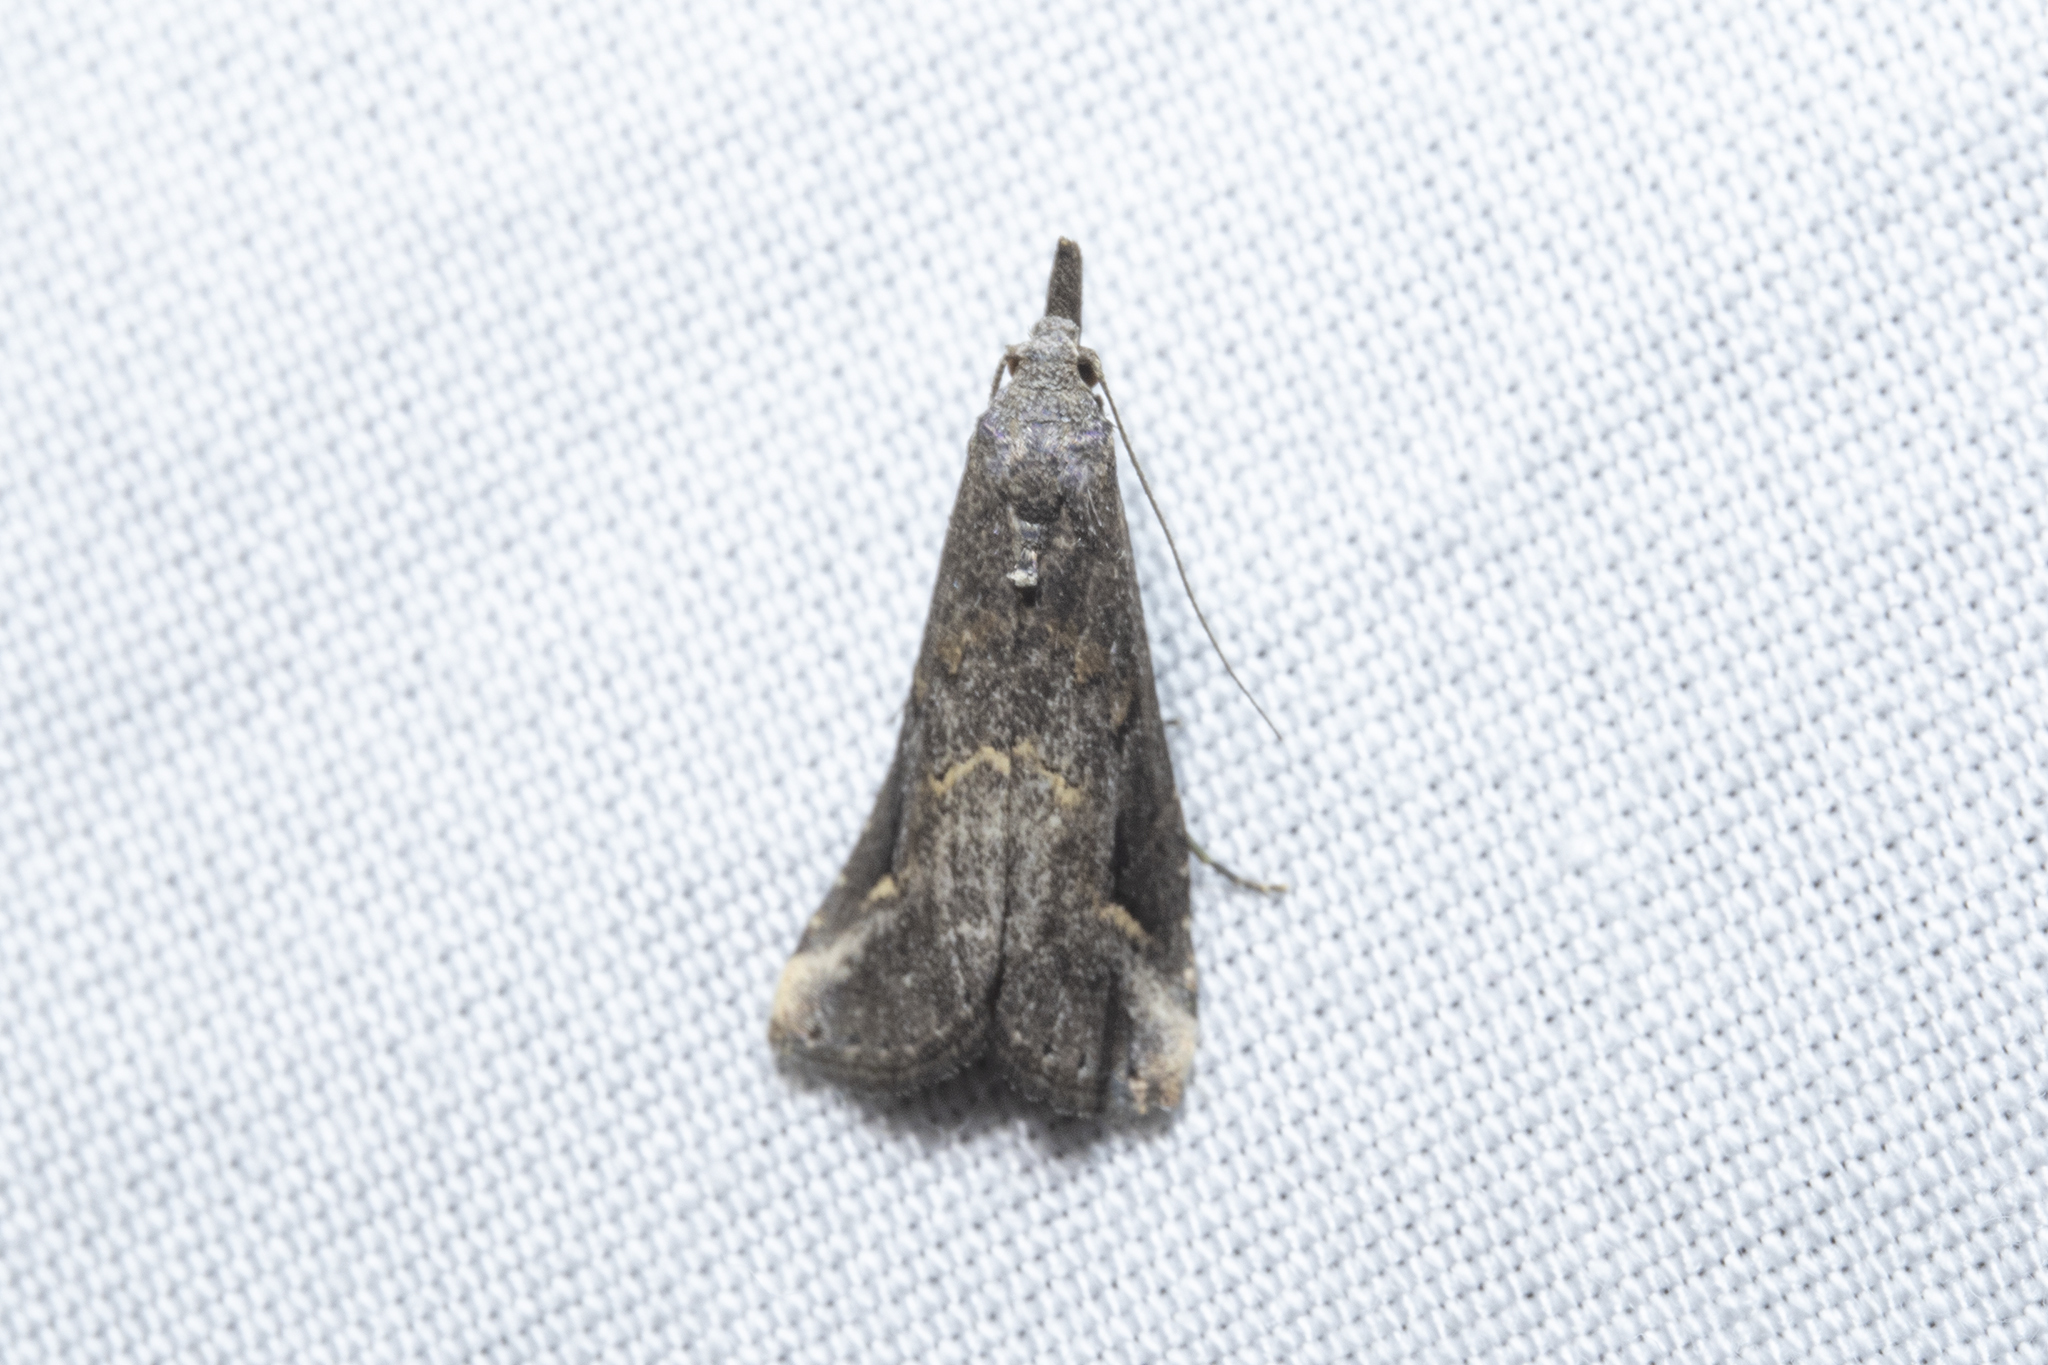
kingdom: Animalia
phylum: Arthropoda
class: Insecta
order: Lepidoptera
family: Erebidae
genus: Schrankia
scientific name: Schrankia costaestrigalis
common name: Pinion-streaked snout
